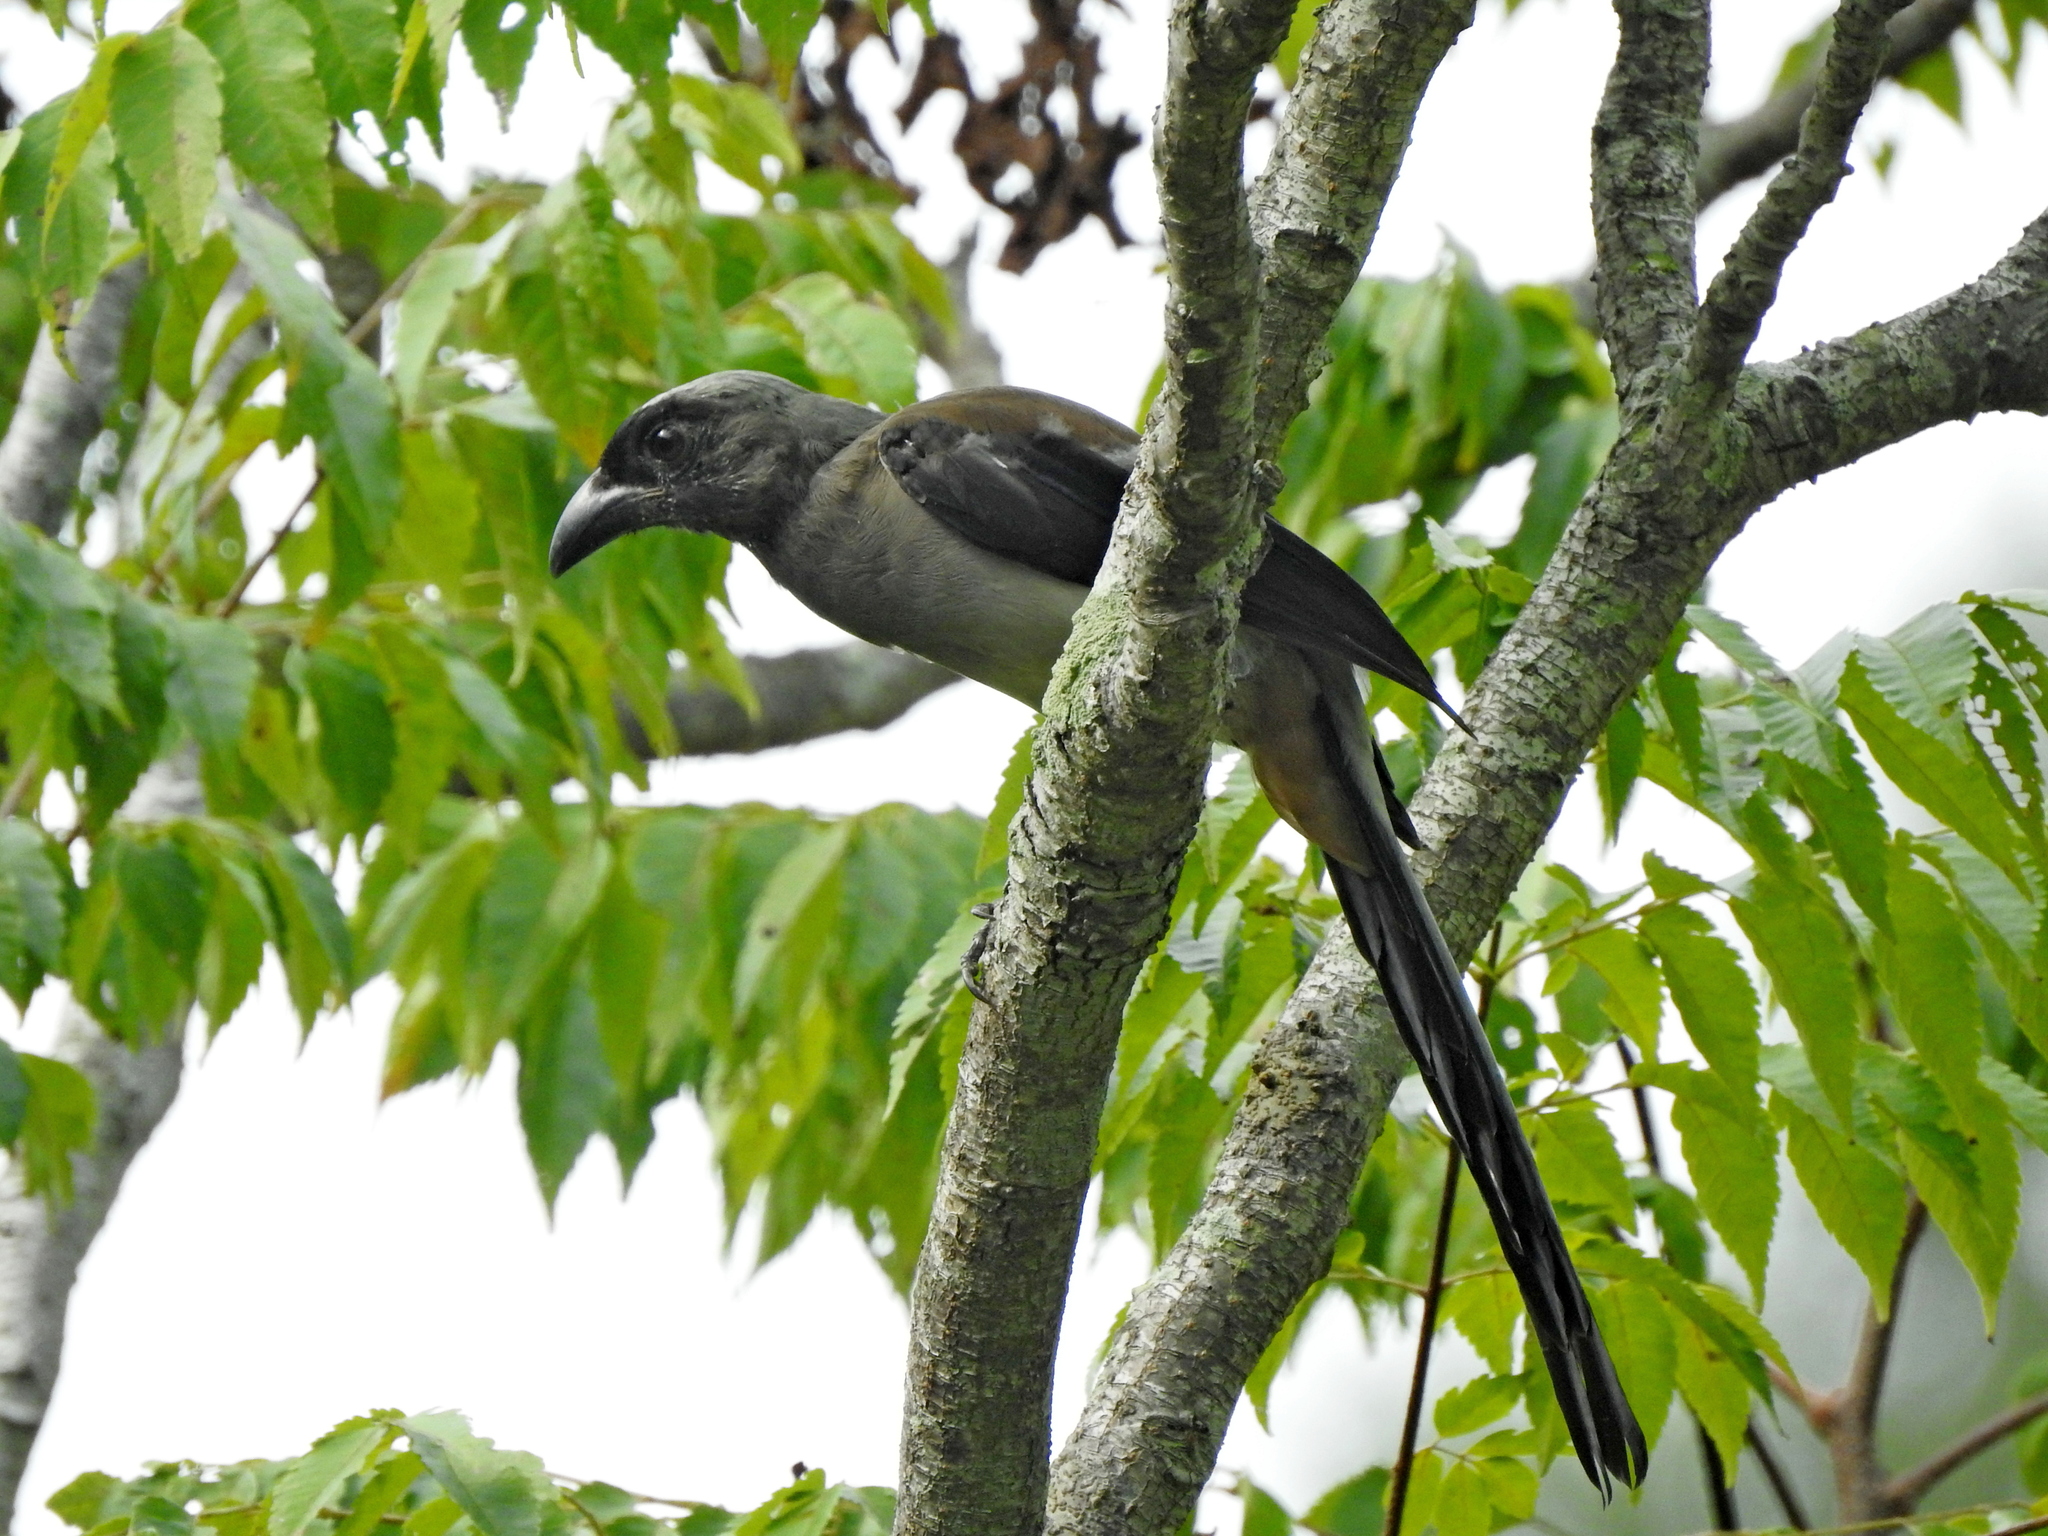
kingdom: Animalia
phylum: Chordata
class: Aves
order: Passeriformes
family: Corvidae
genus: Dendrocitta
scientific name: Dendrocitta formosae
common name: Grey treepie
